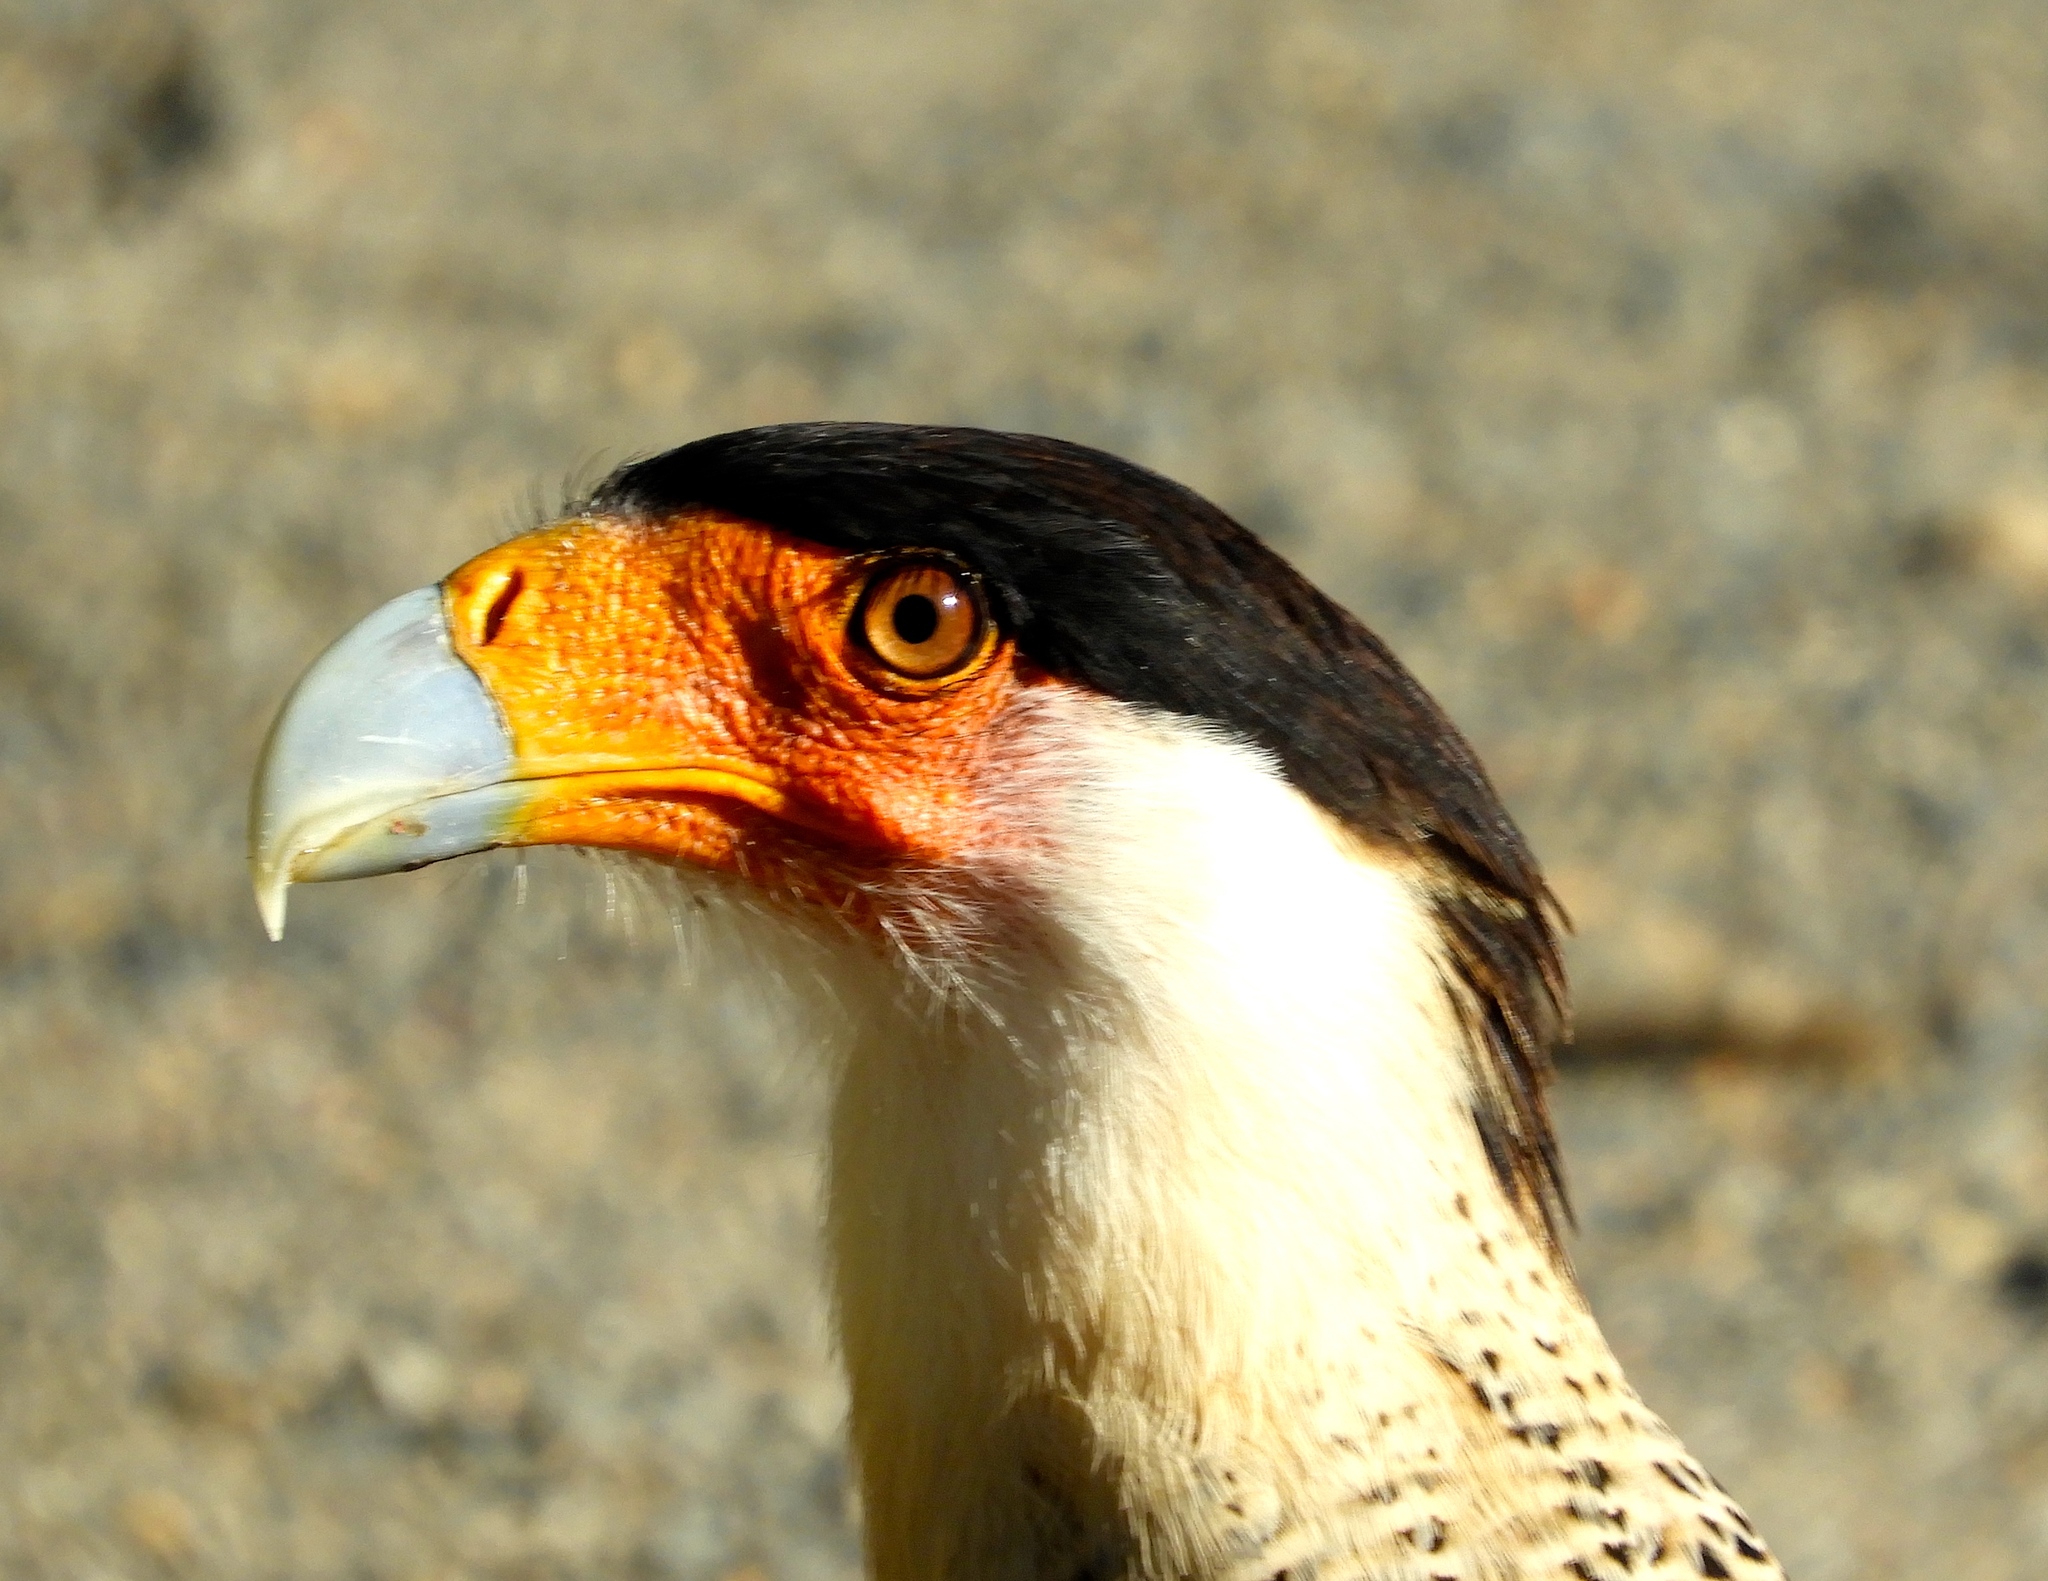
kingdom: Animalia
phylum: Chordata
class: Aves
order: Falconiformes
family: Falconidae
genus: Caracara
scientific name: Caracara plancus
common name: Southern caracara
